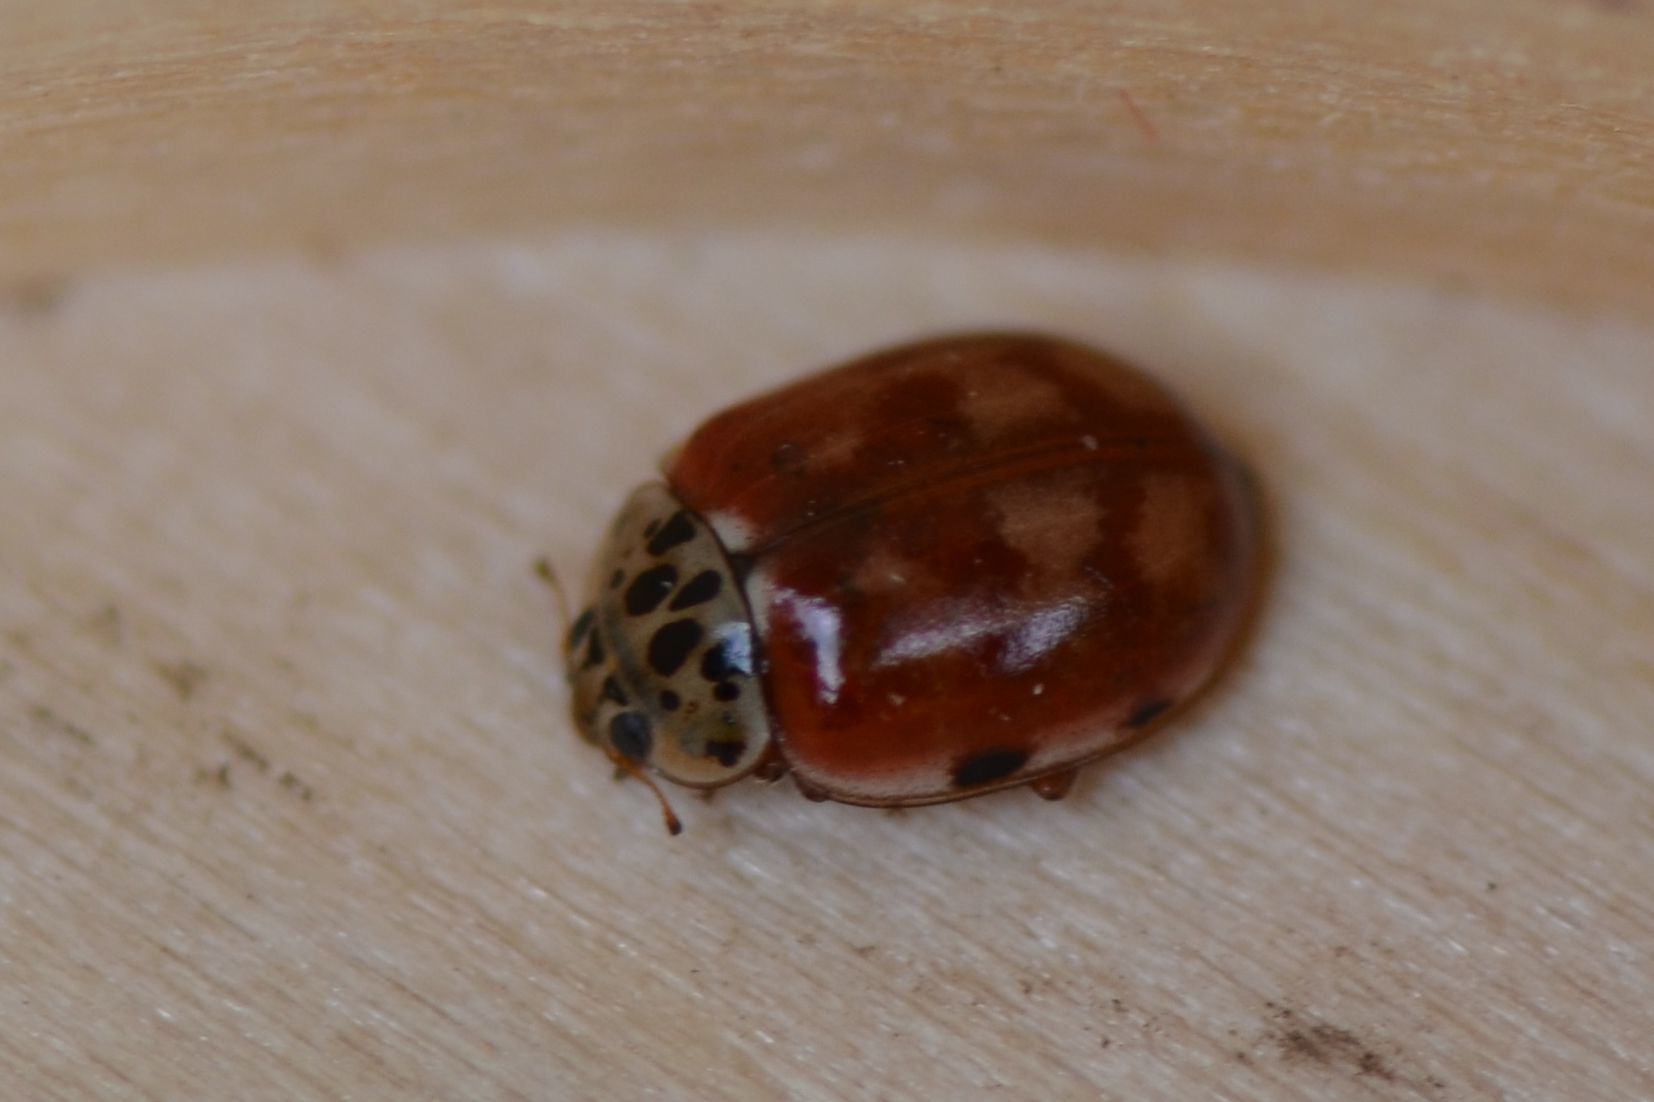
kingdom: Animalia
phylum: Arthropoda
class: Insecta
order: Coleoptera
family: Coccinellidae
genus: Harmonia
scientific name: Harmonia quadripunctata
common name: Cream-streaked ladybird
